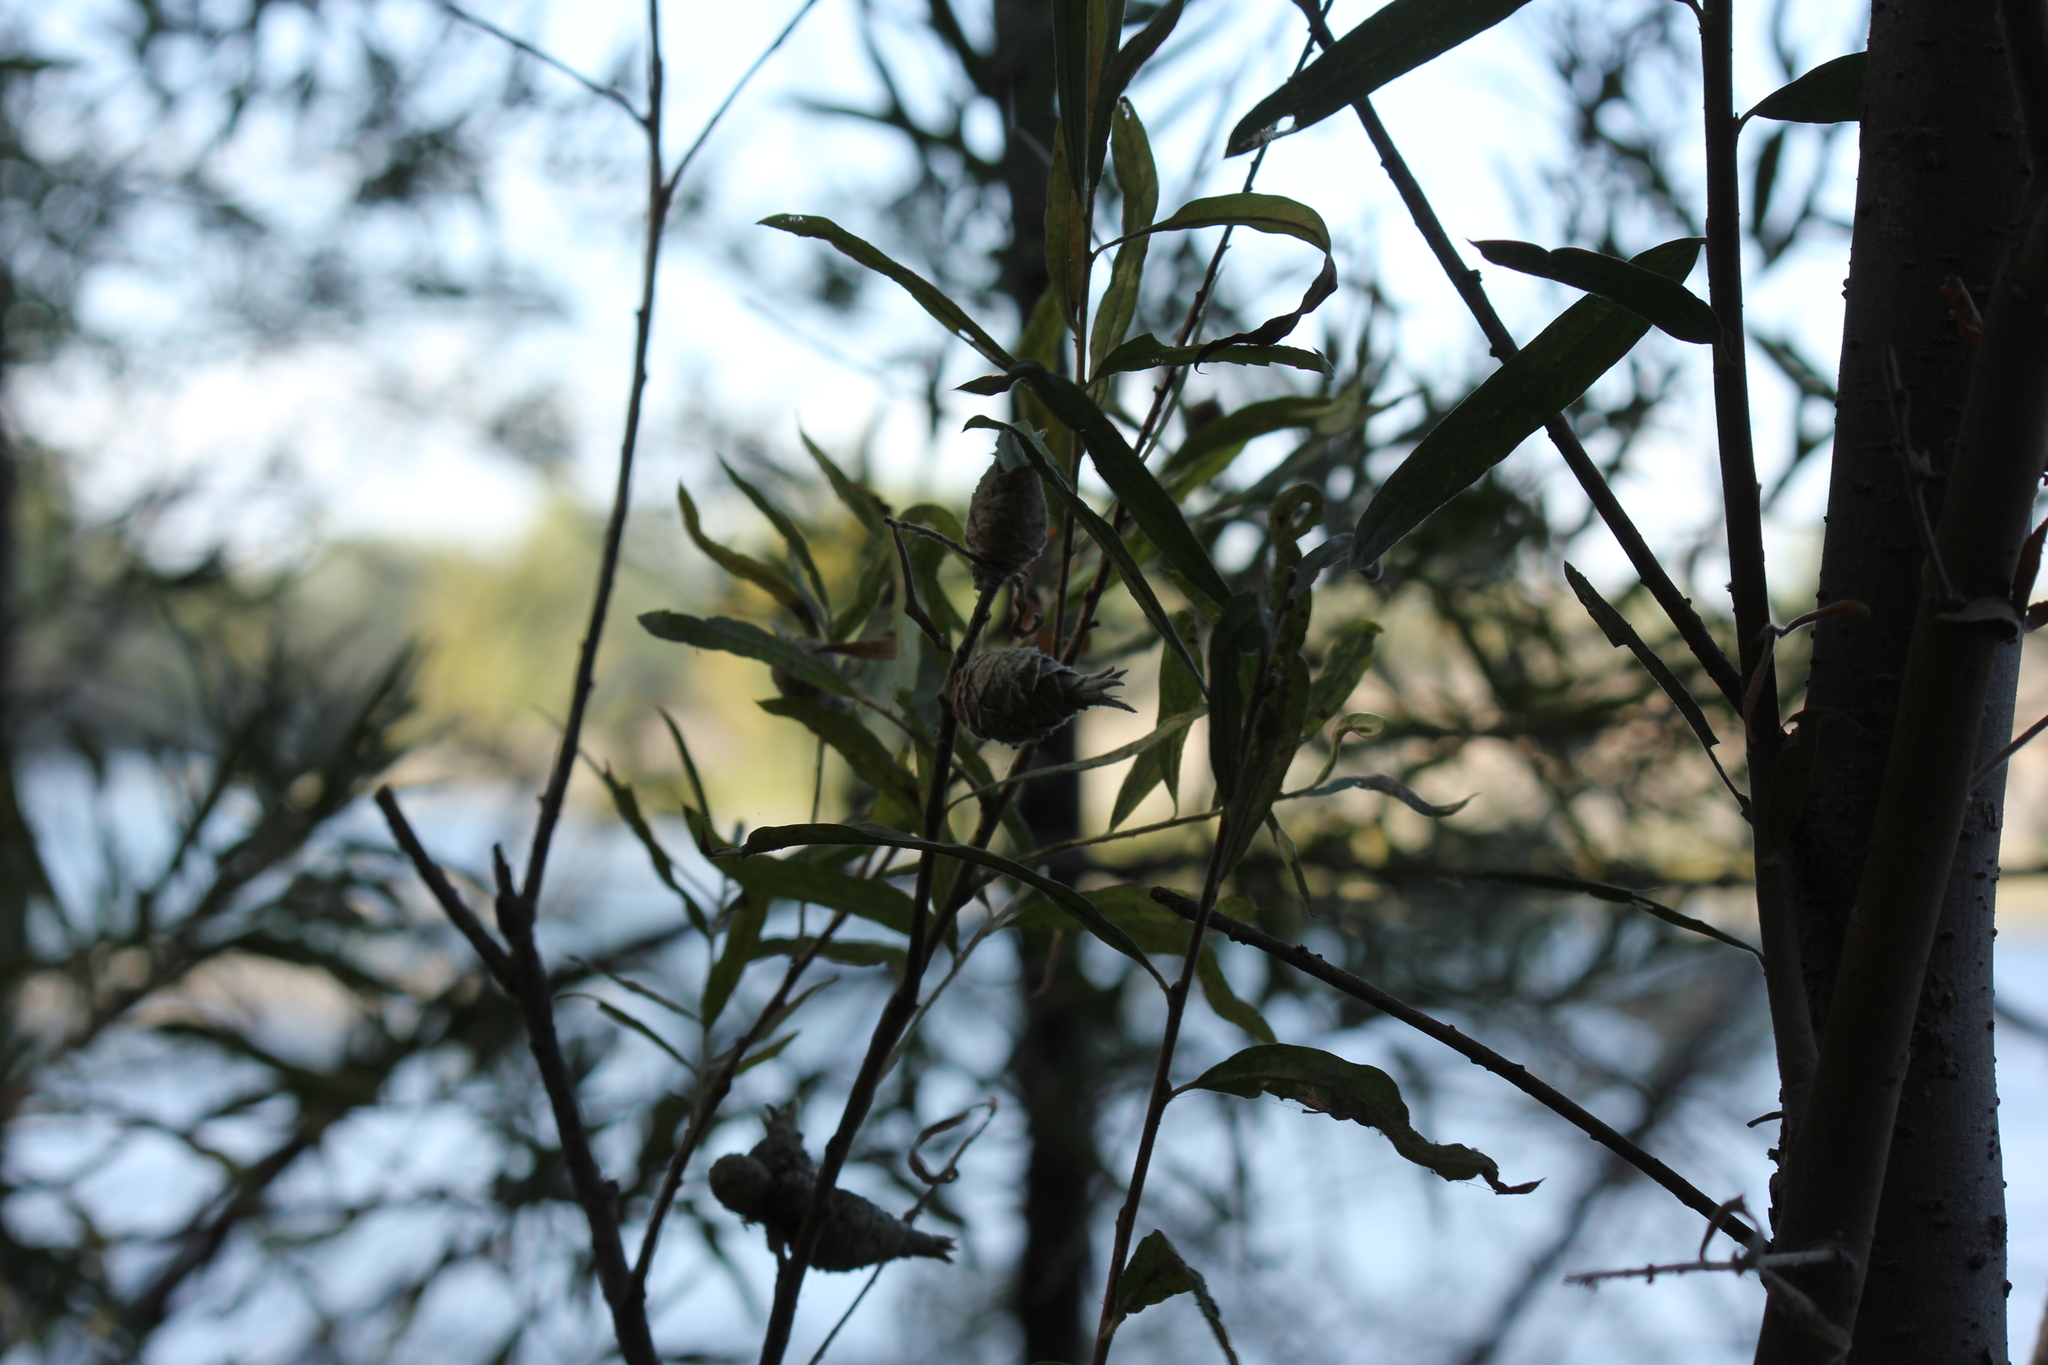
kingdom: Animalia
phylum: Arthropoda
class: Insecta
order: Diptera
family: Cecidomyiidae
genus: Rabdophaga
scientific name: Rabdophaga strobiloides
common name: Willow pinecone gall midge
